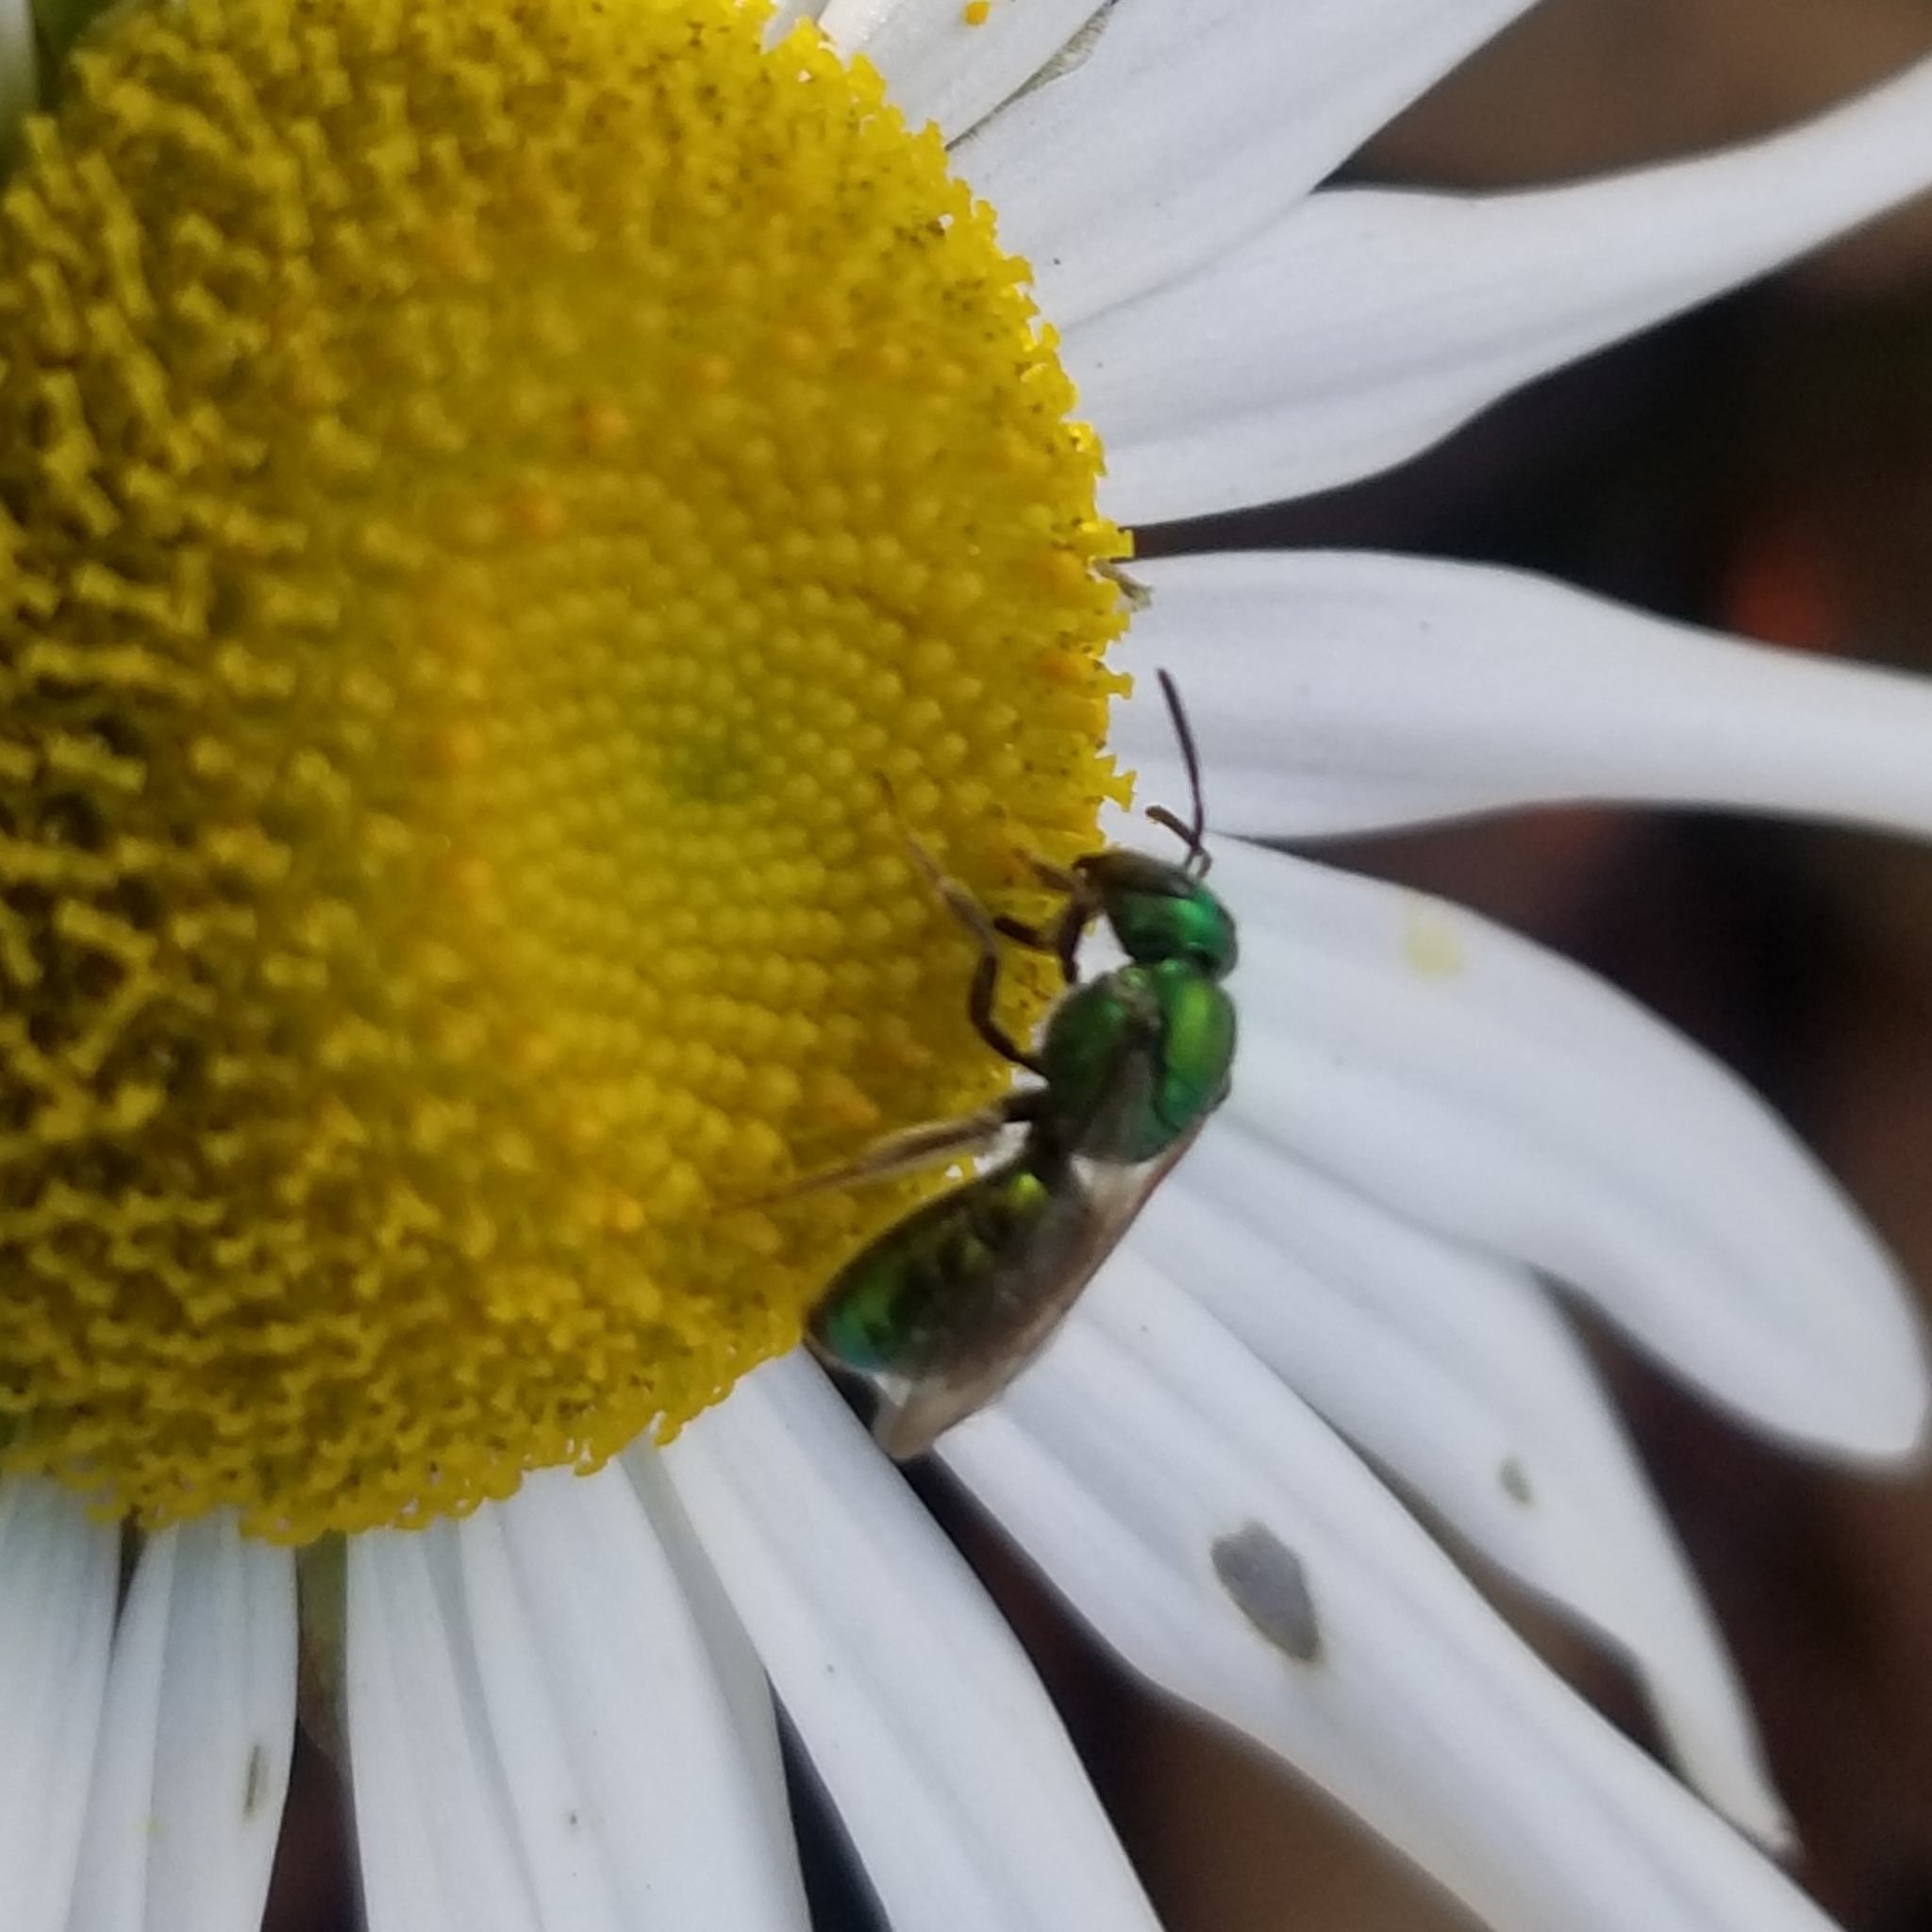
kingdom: Animalia
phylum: Arthropoda
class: Insecta
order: Hymenoptera
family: Halictidae
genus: Augochlora
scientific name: Augochlora pura
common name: Pure green sweat bee
